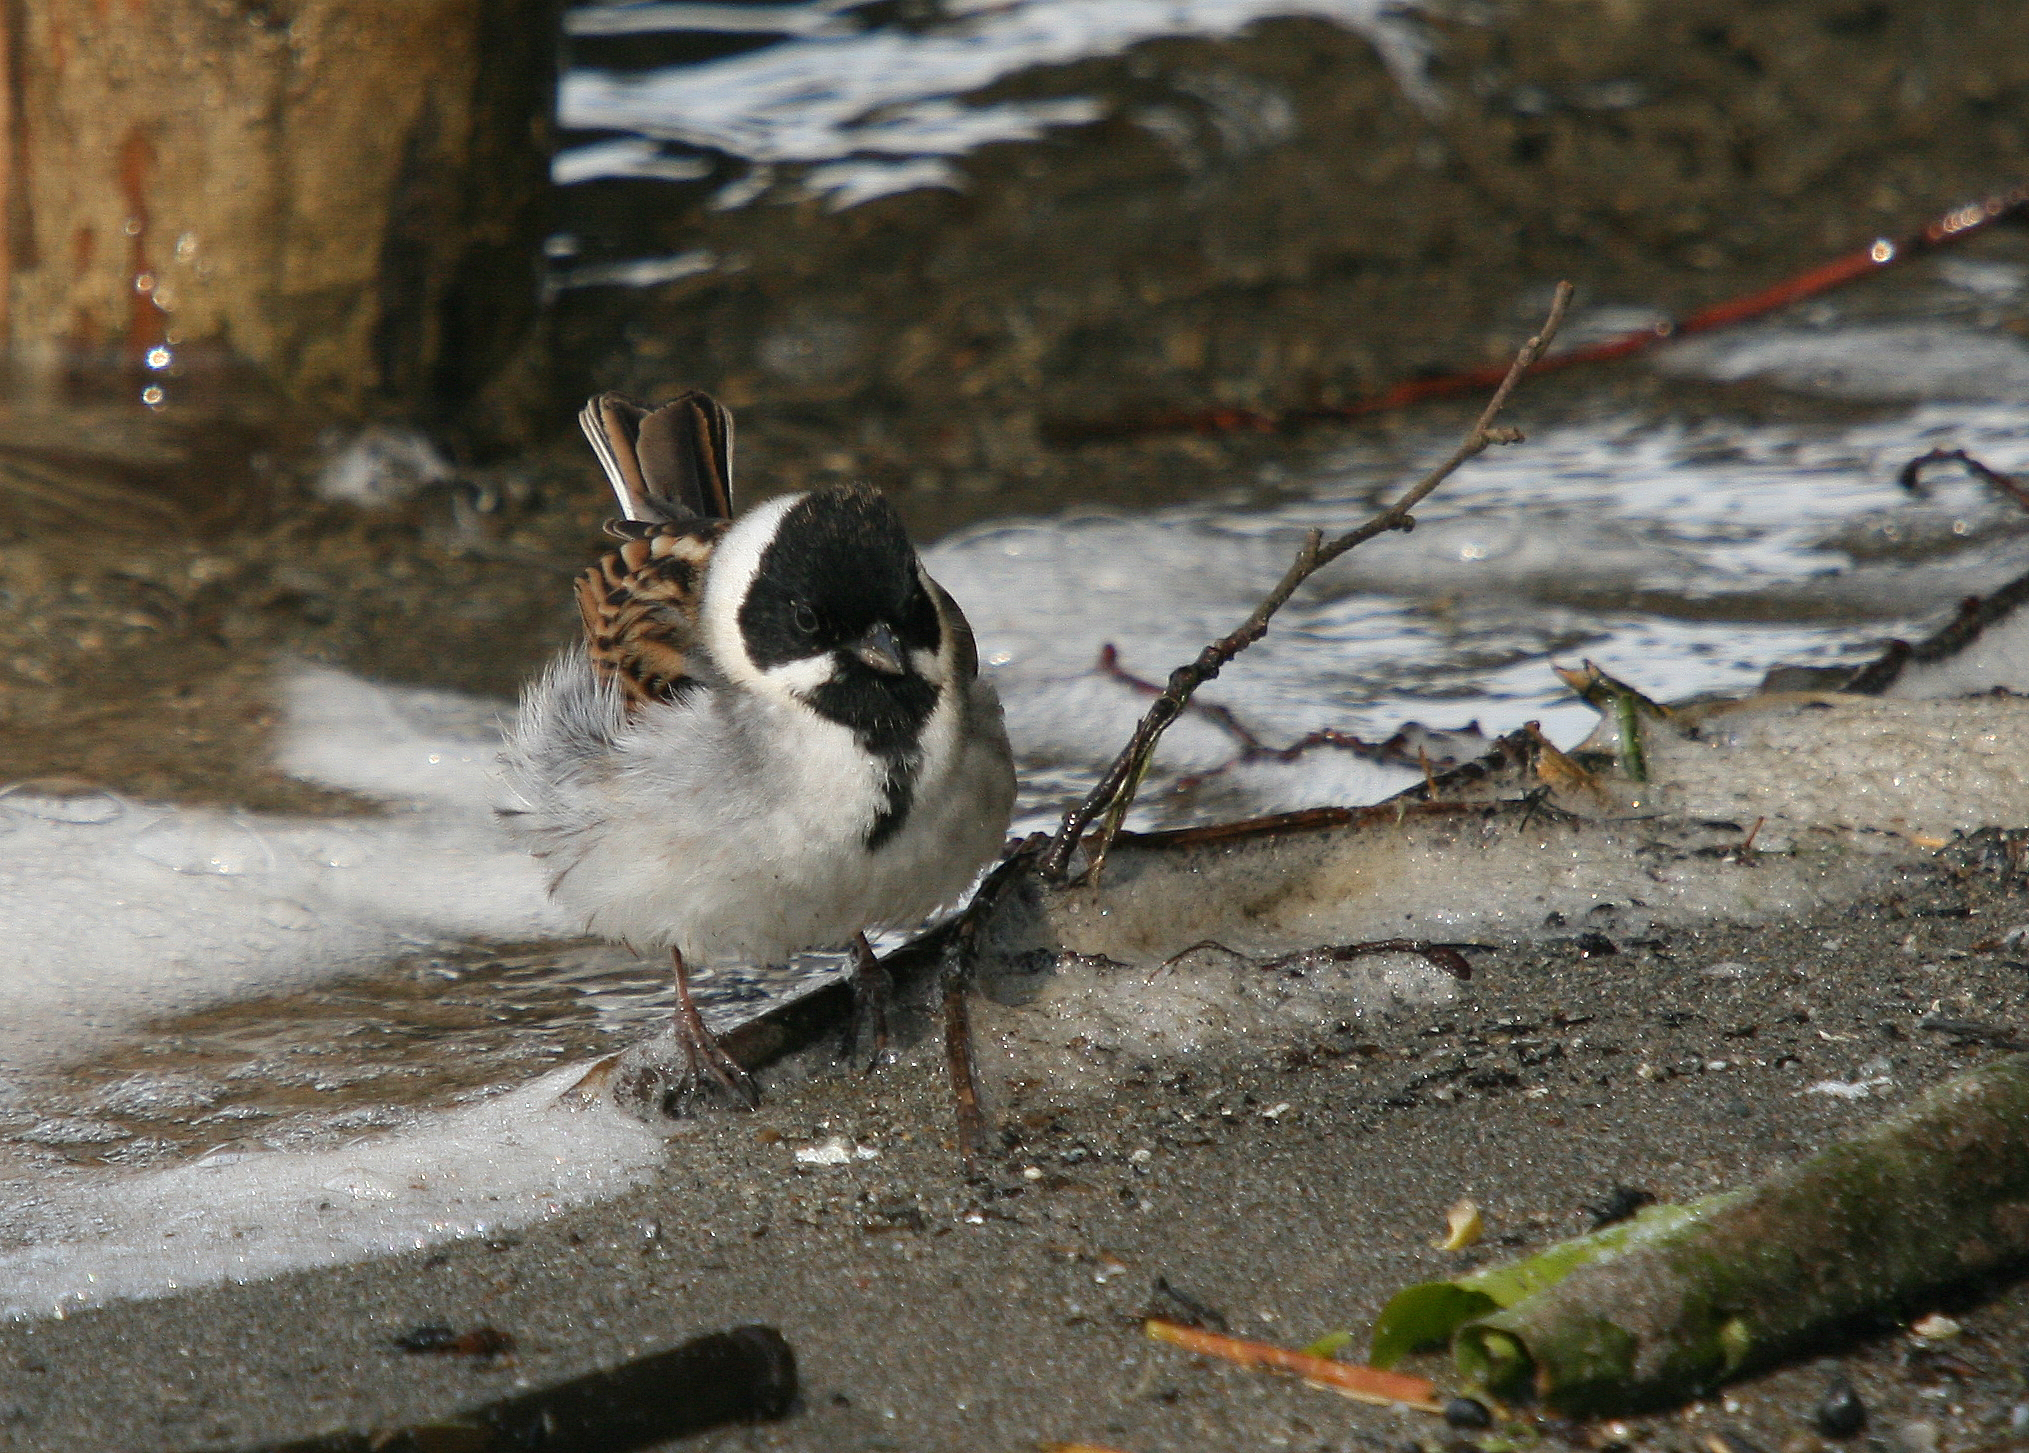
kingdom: Animalia
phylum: Chordata
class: Aves
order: Passeriformes
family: Emberizidae
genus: Emberiza
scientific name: Emberiza schoeniclus
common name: Reed bunting
